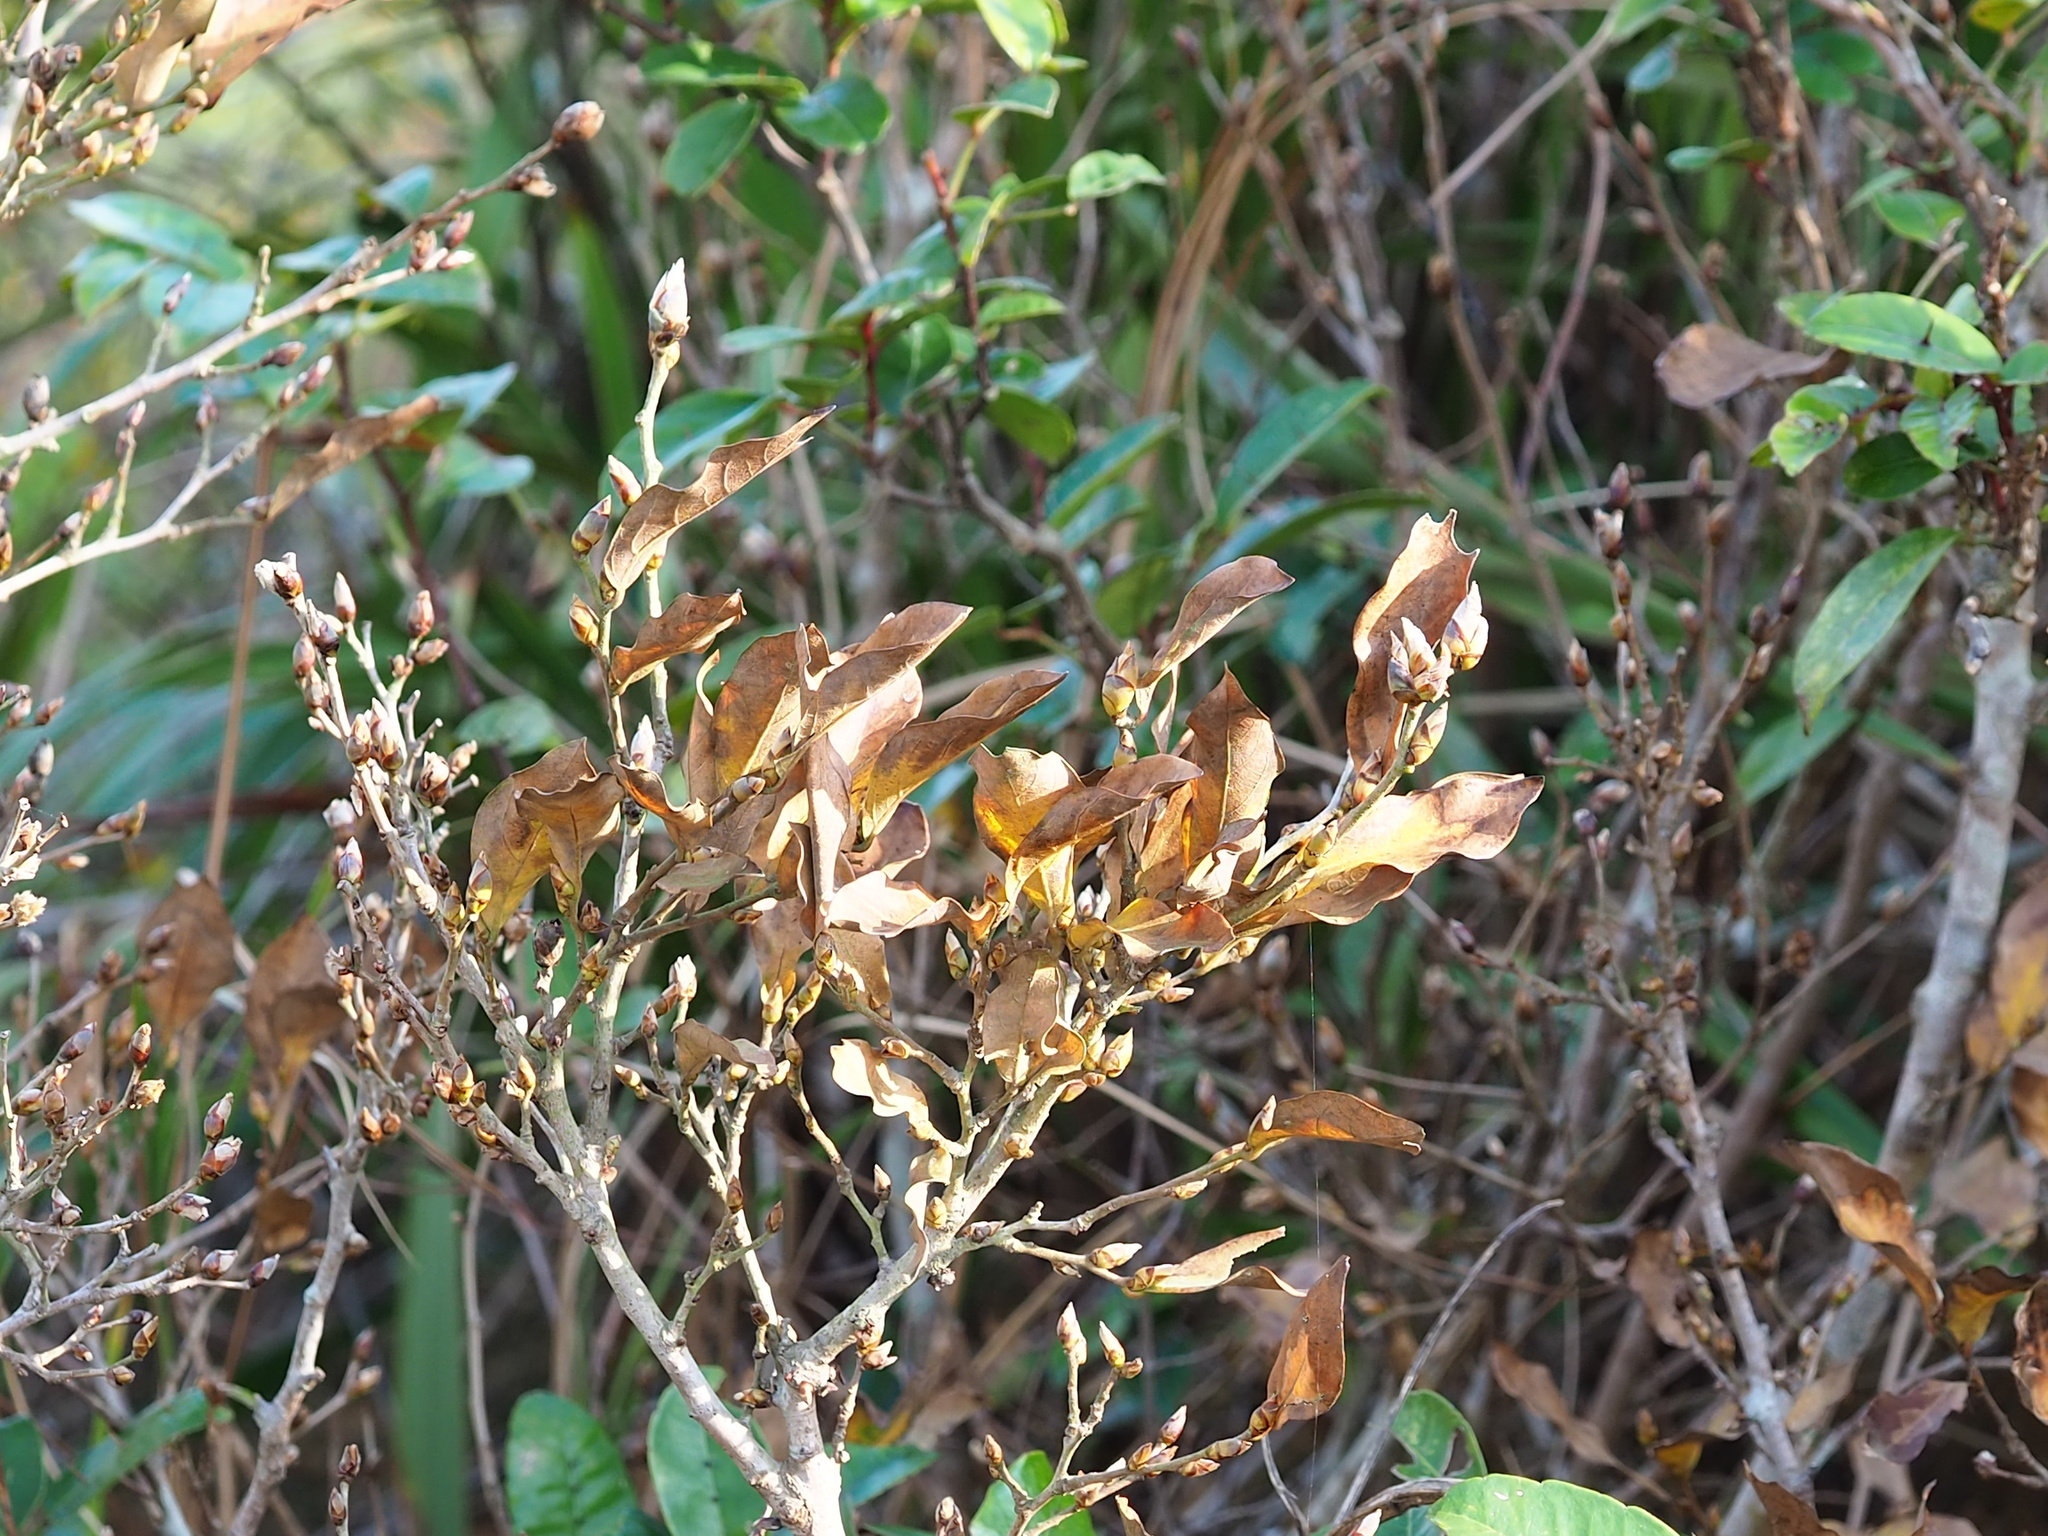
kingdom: Plantae
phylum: Tracheophyta
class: Magnoliopsida
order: Laurales
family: Lauraceae
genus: Lindera
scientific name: Lindera glauca
